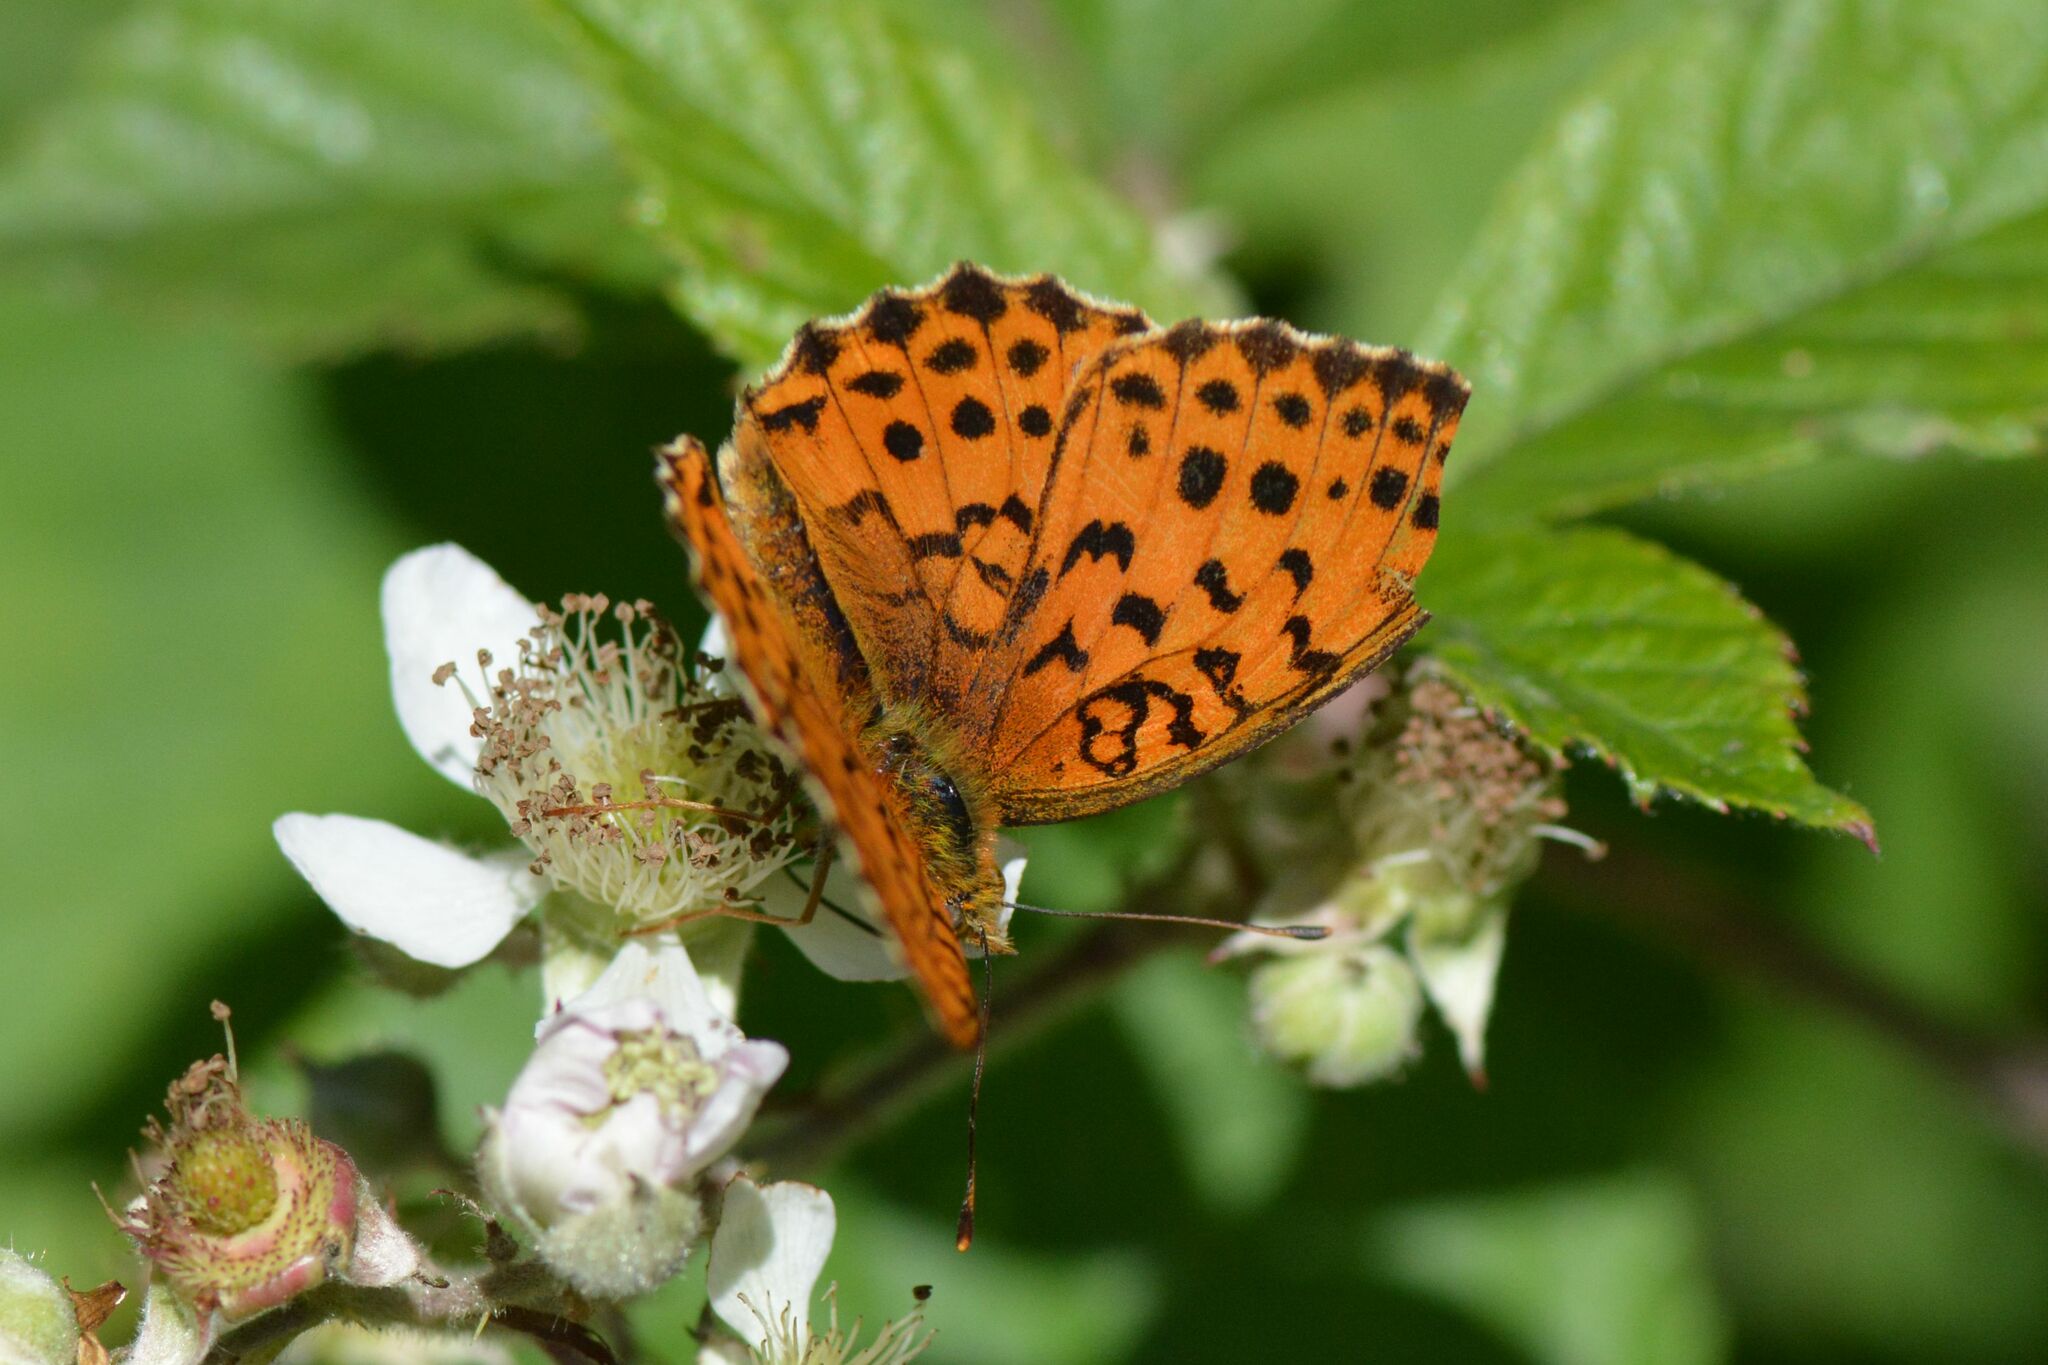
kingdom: Animalia
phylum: Arthropoda
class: Insecta
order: Lepidoptera
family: Nymphalidae
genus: Brenthis
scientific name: Brenthis daphne
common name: Marbled fritillary
